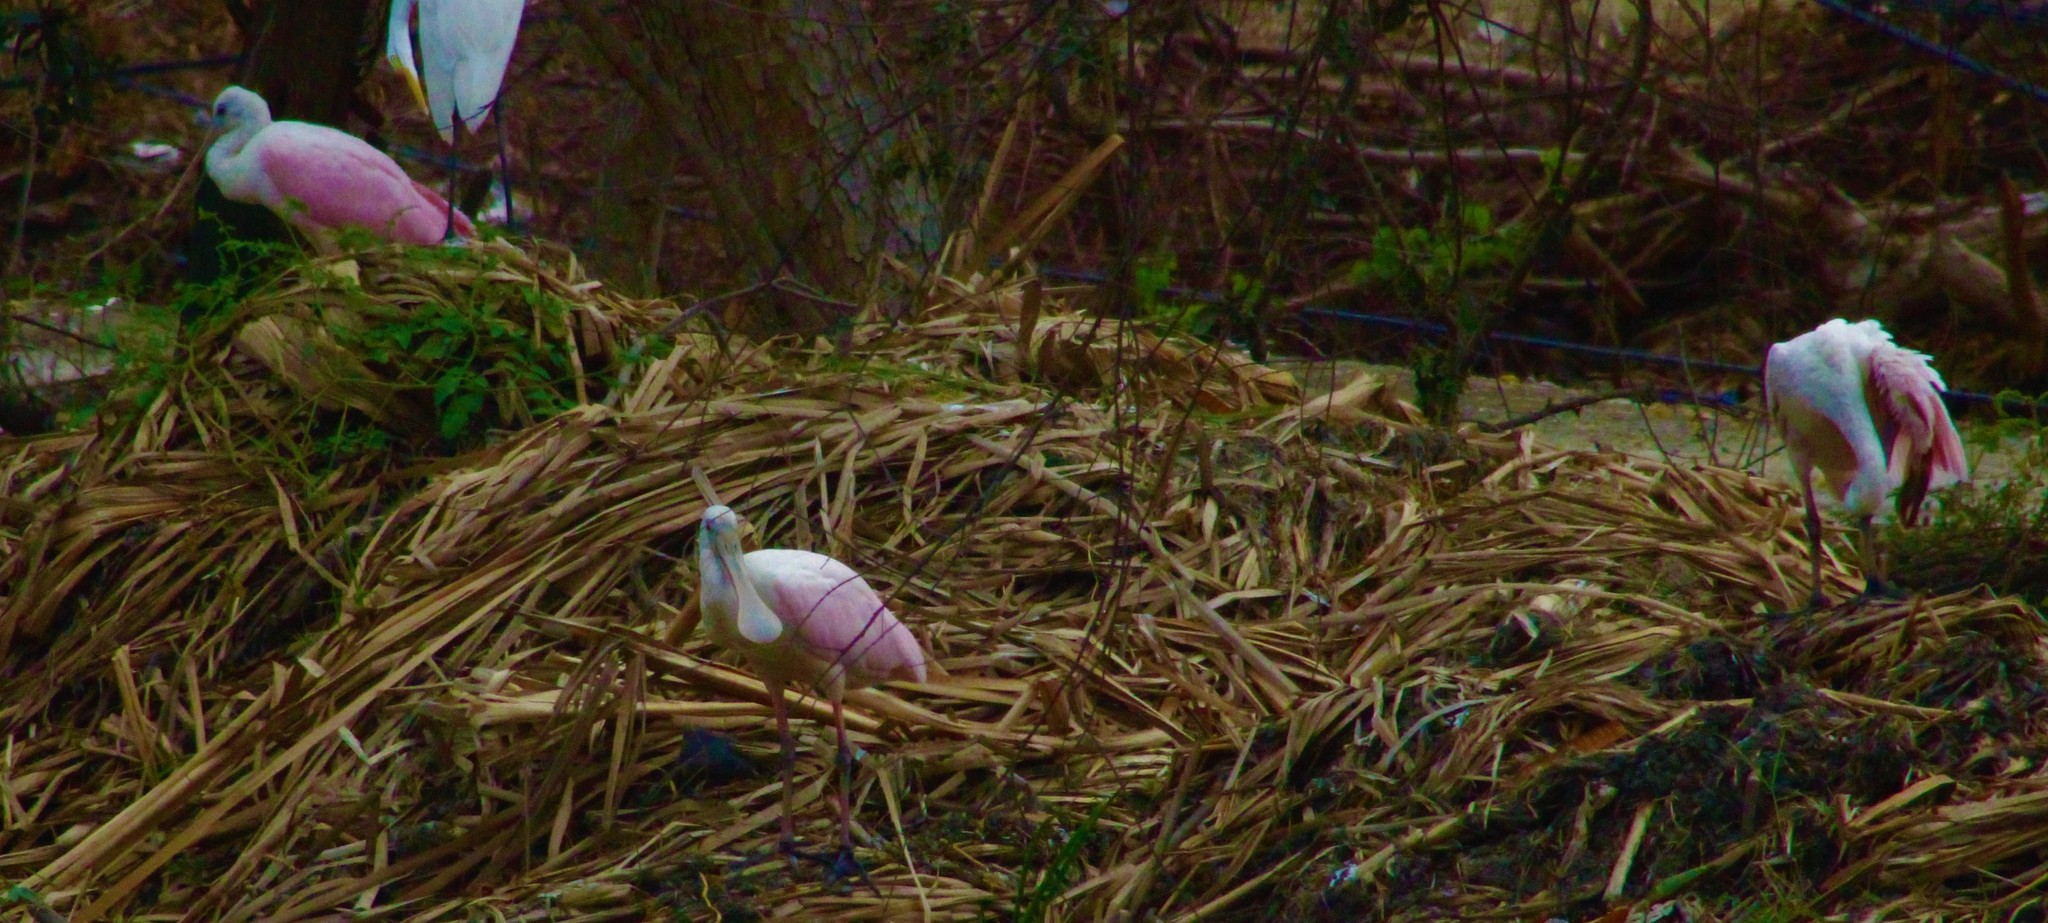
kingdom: Animalia
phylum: Chordata
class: Aves
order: Pelecaniformes
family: Threskiornithidae
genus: Platalea
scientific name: Platalea ajaja
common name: Roseate spoonbill
